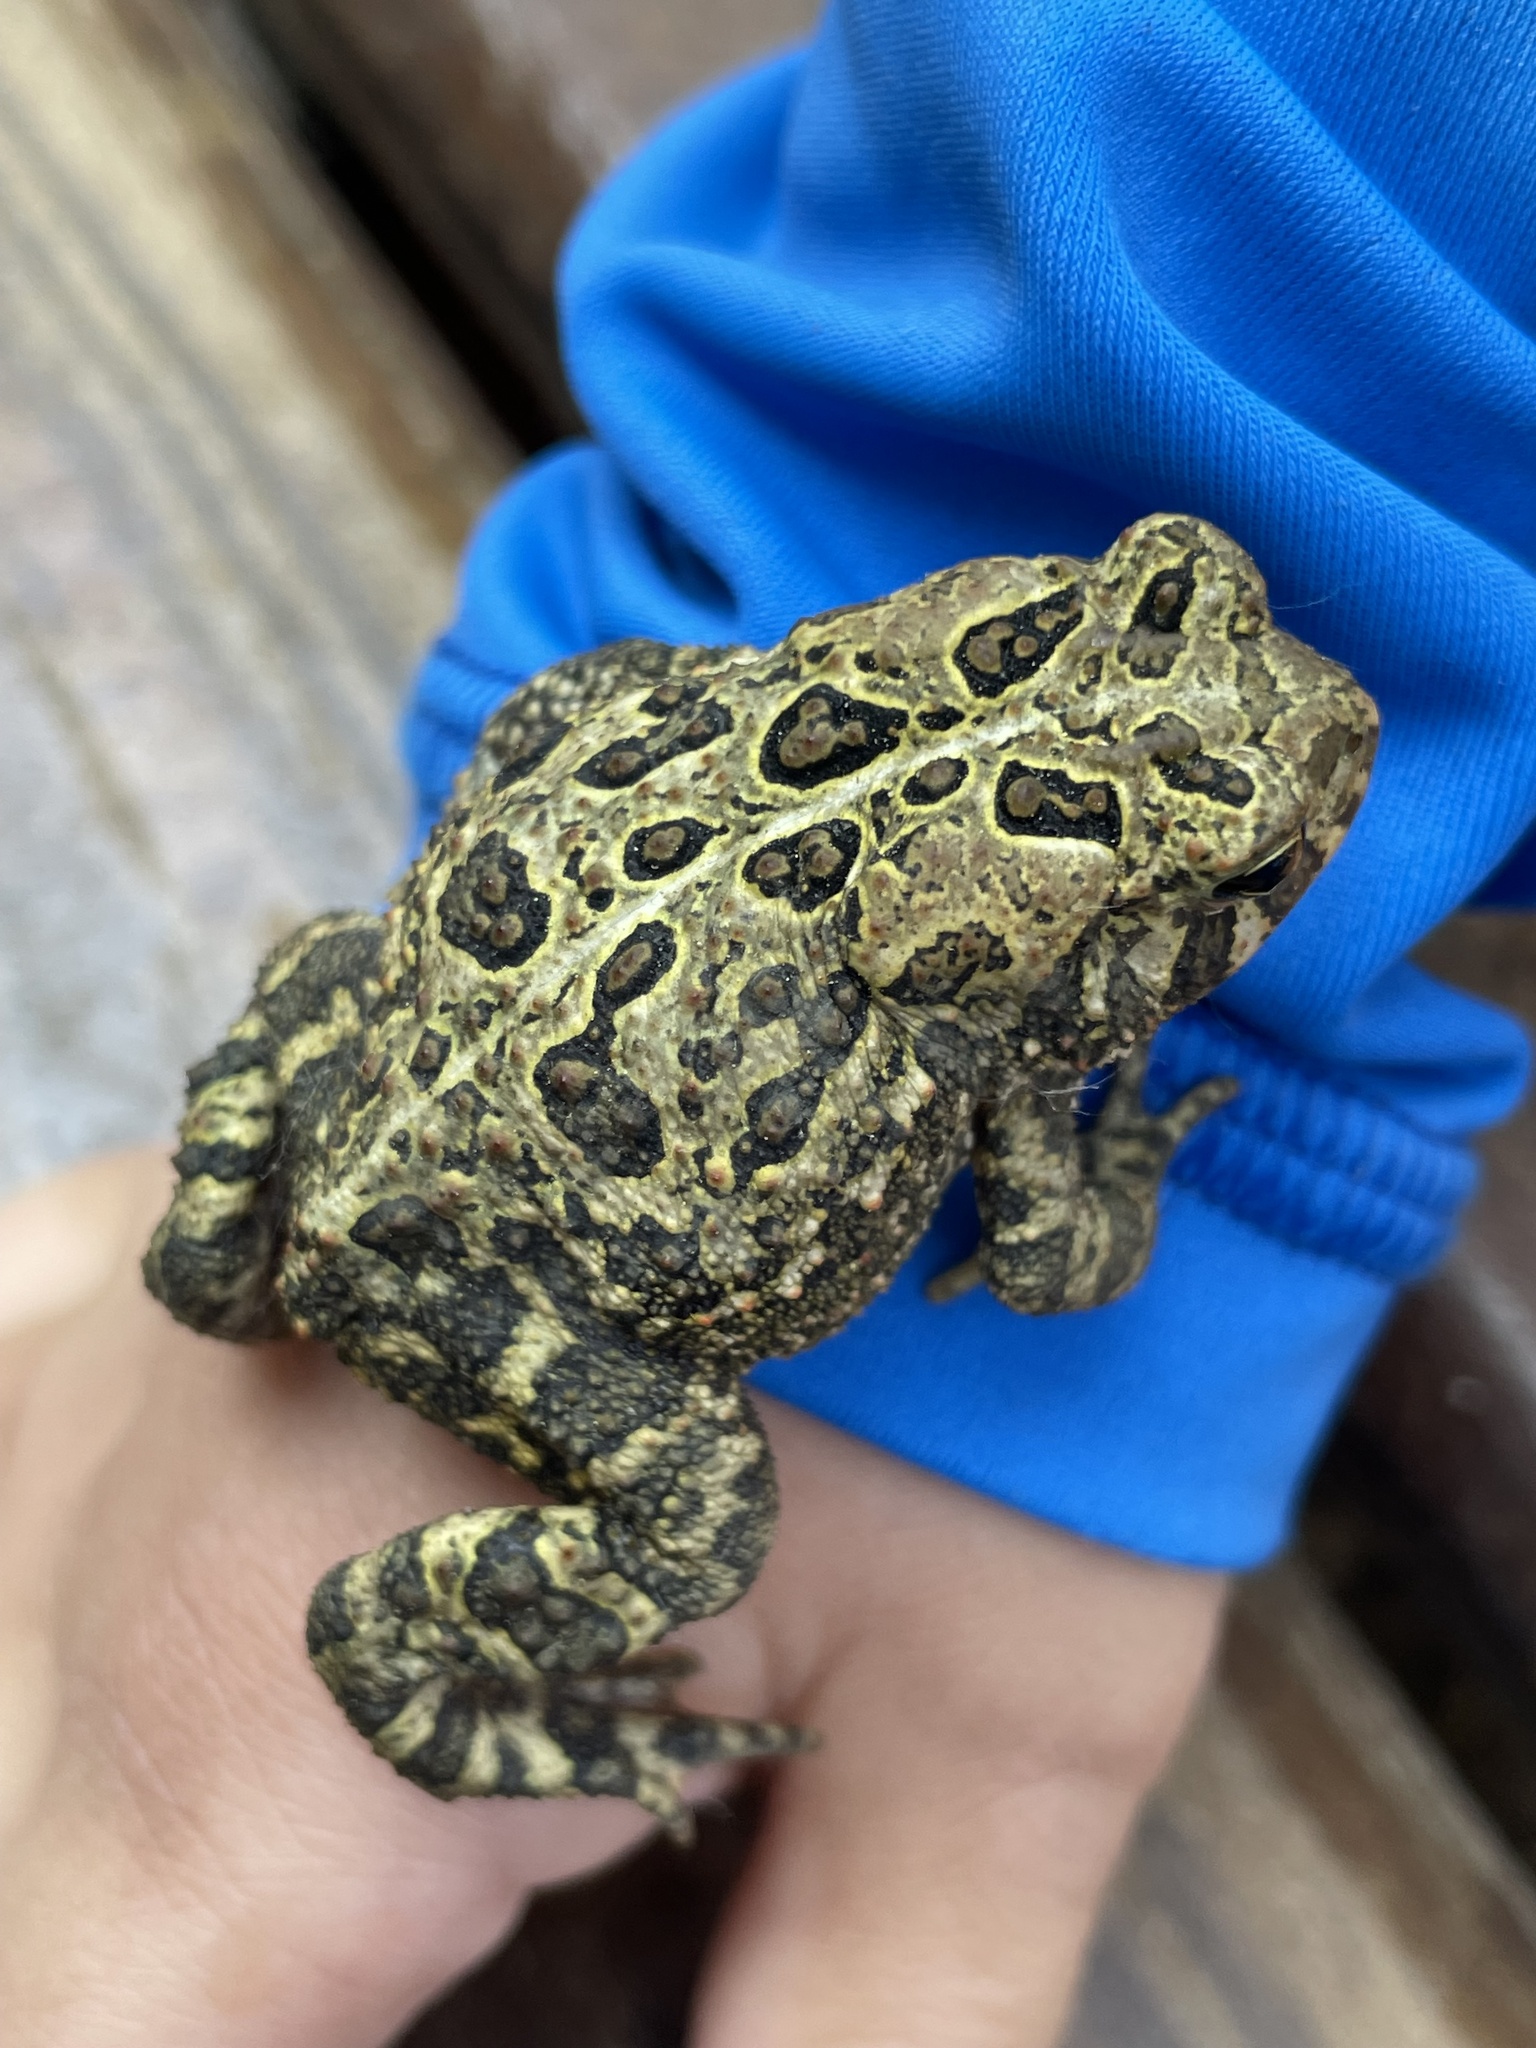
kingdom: Animalia
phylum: Chordata
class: Amphibia
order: Anura
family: Bufonidae
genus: Anaxyrus
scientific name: Anaxyrus americanus
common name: American toad
